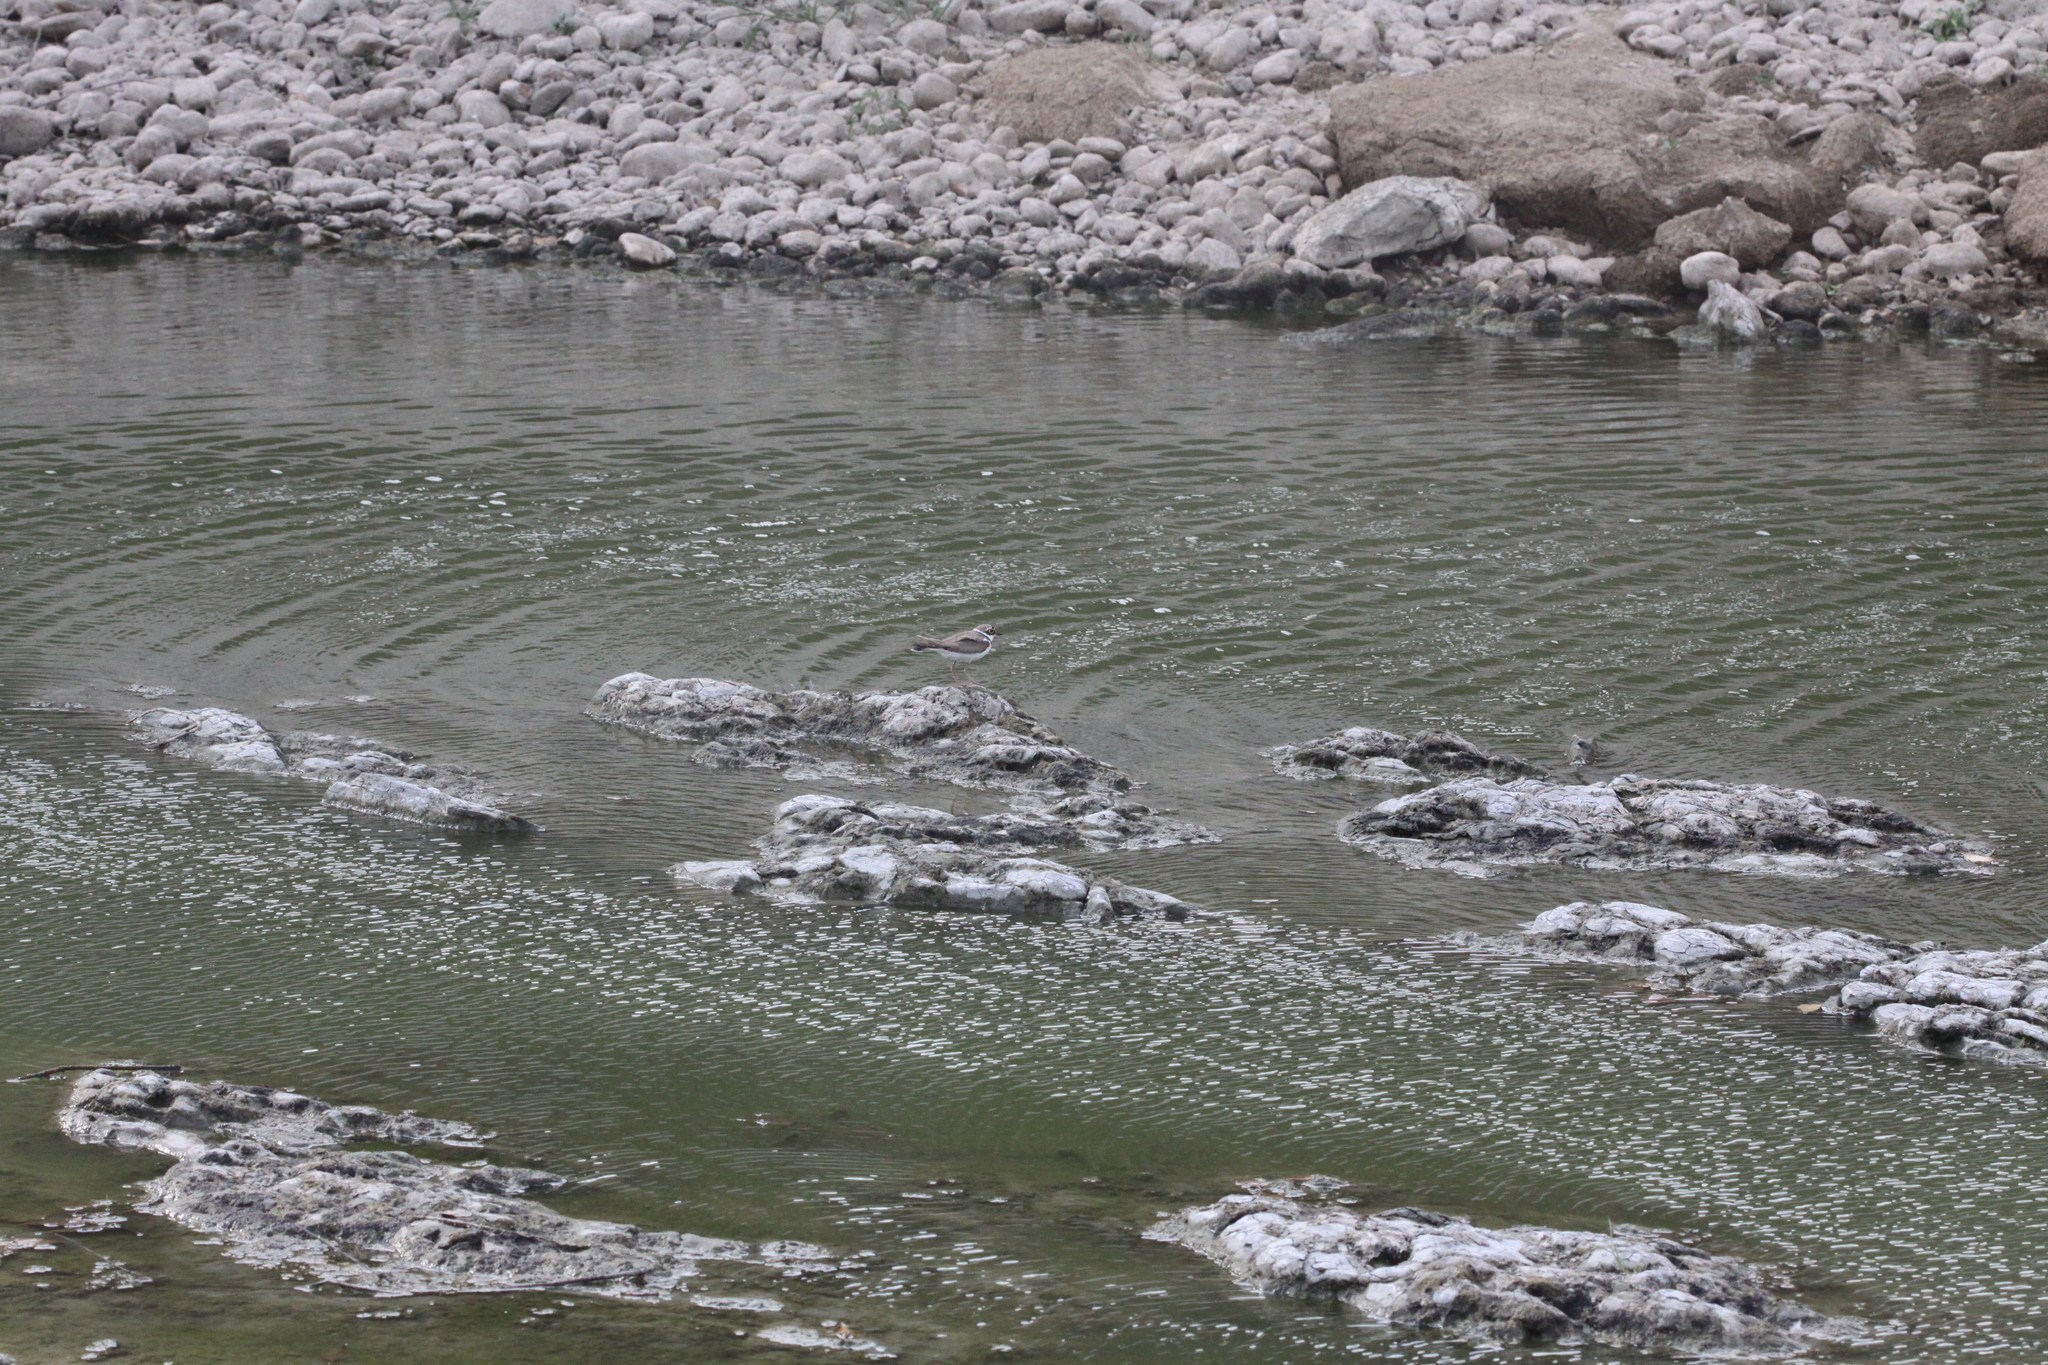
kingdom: Animalia
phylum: Chordata
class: Aves
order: Charadriiformes
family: Charadriidae
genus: Charadrius
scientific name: Charadrius dubius
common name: Little ringed plover
